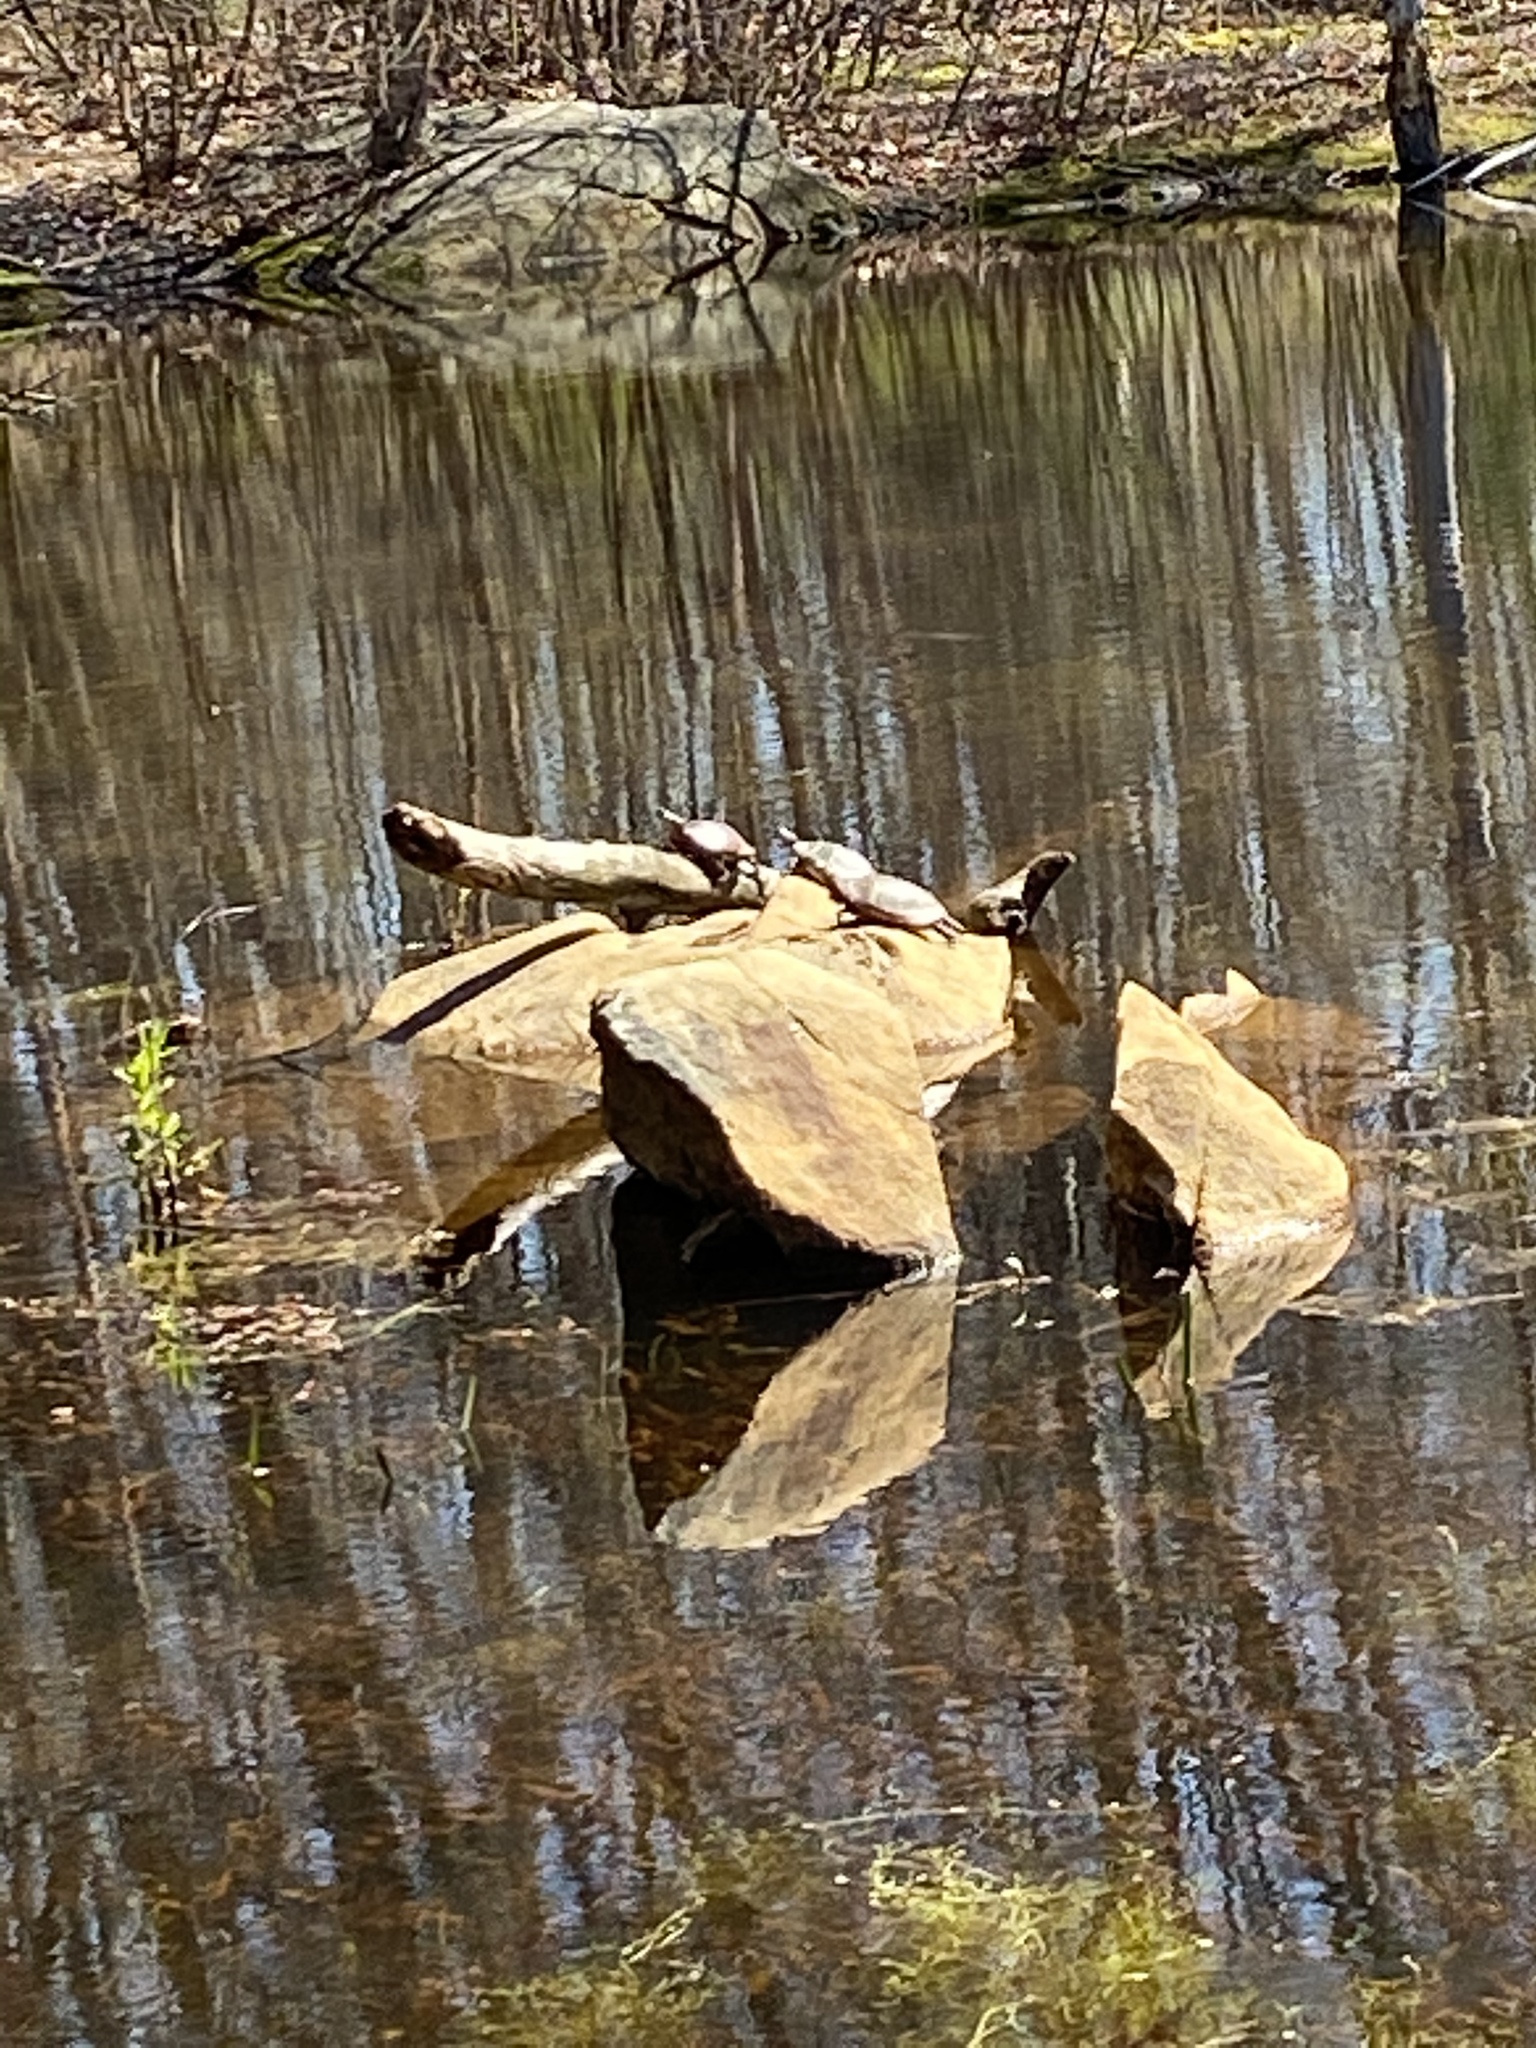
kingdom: Animalia
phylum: Chordata
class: Testudines
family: Emydidae
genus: Chrysemys
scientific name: Chrysemys picta
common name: Painted turtle
